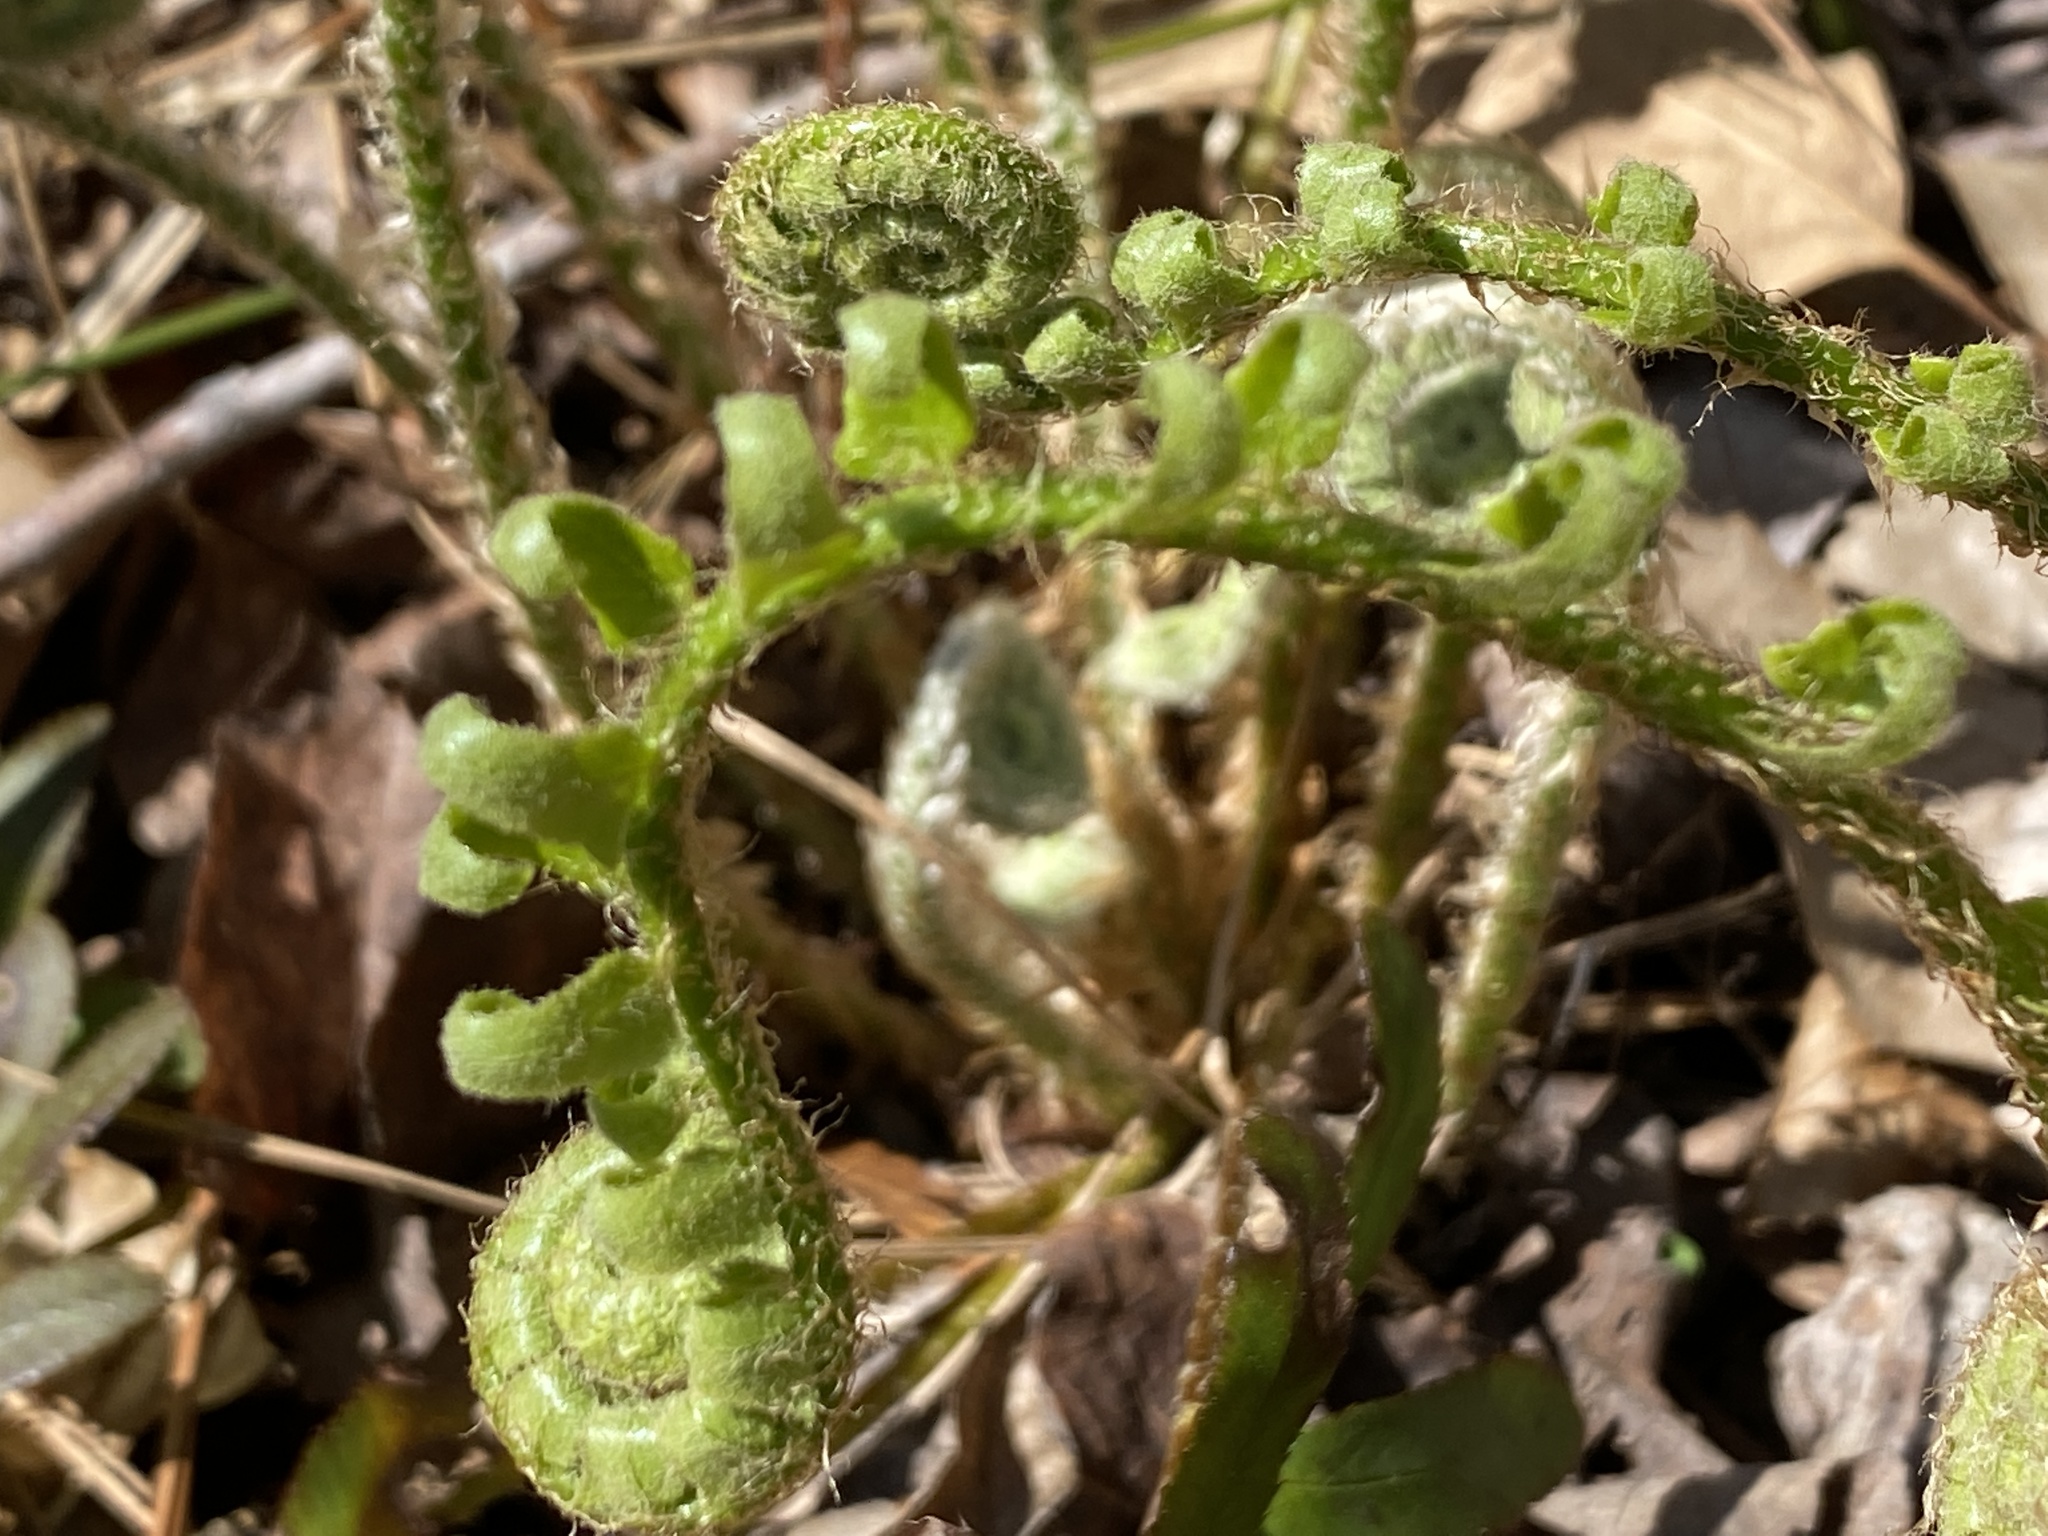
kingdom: Plantae
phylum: Tracheophyta
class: Polypodiopsida
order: Polypodiales
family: Dryopteridaceae
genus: Polystichum
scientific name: Polystichum acrostichoides
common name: Christmas fern
